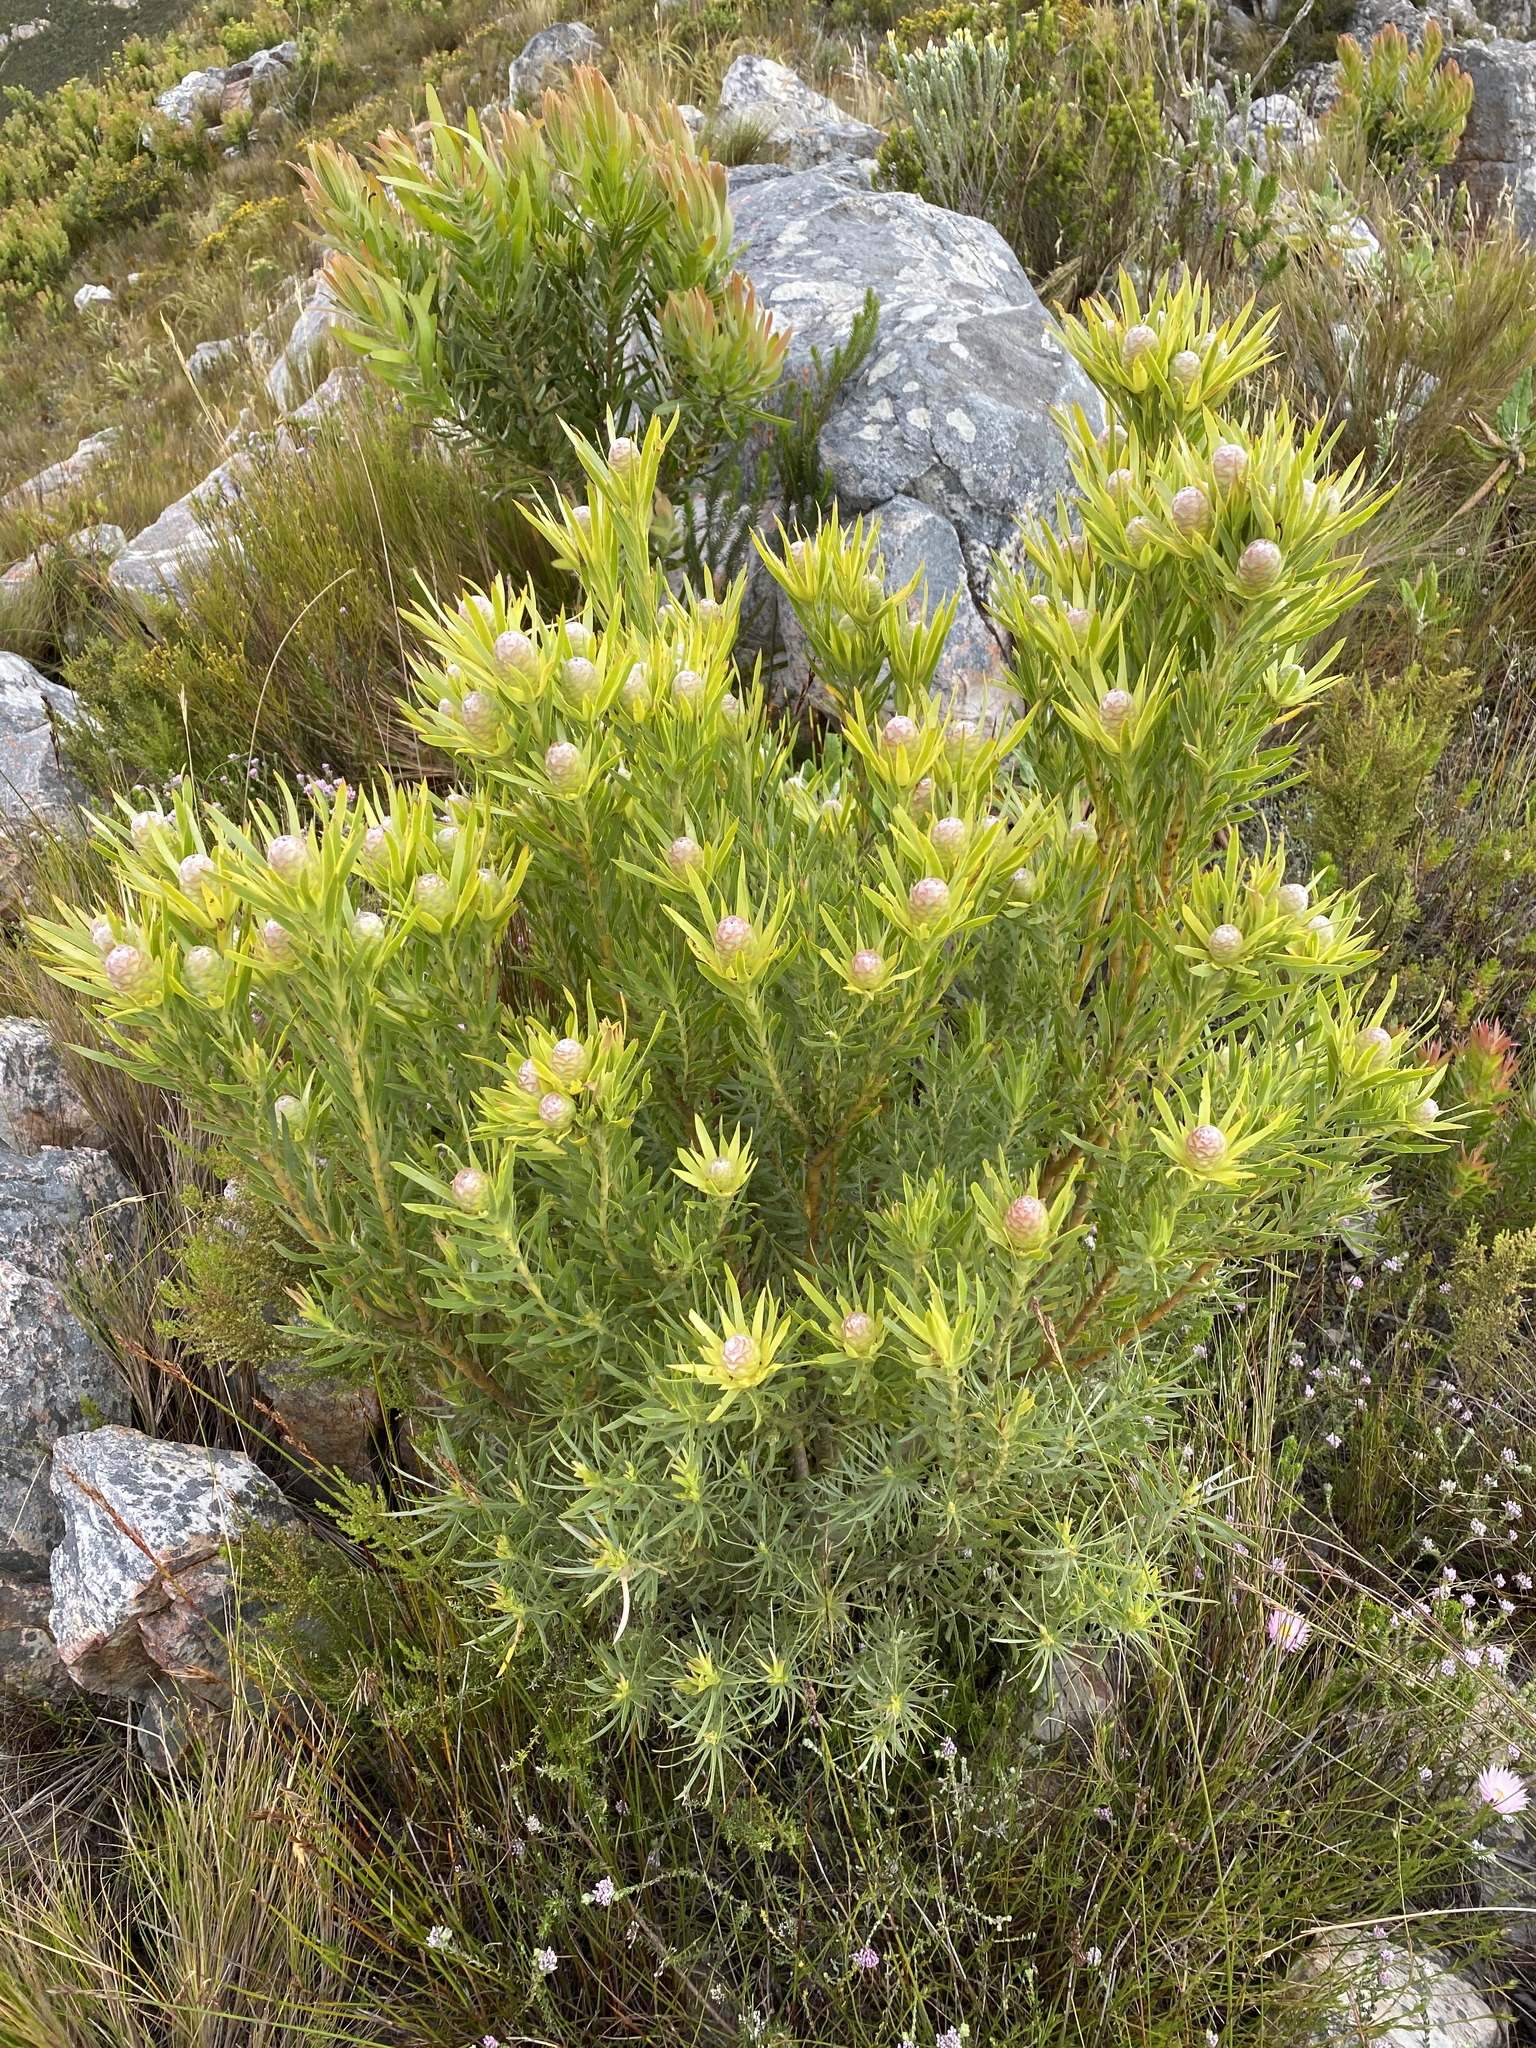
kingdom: Plantae
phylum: Tracheophyta
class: Magnoliopsida
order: Proteales
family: Proteaceae
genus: Leucadendron
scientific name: Leucadendron xanthoconus
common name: Sickle-leaf conebush
